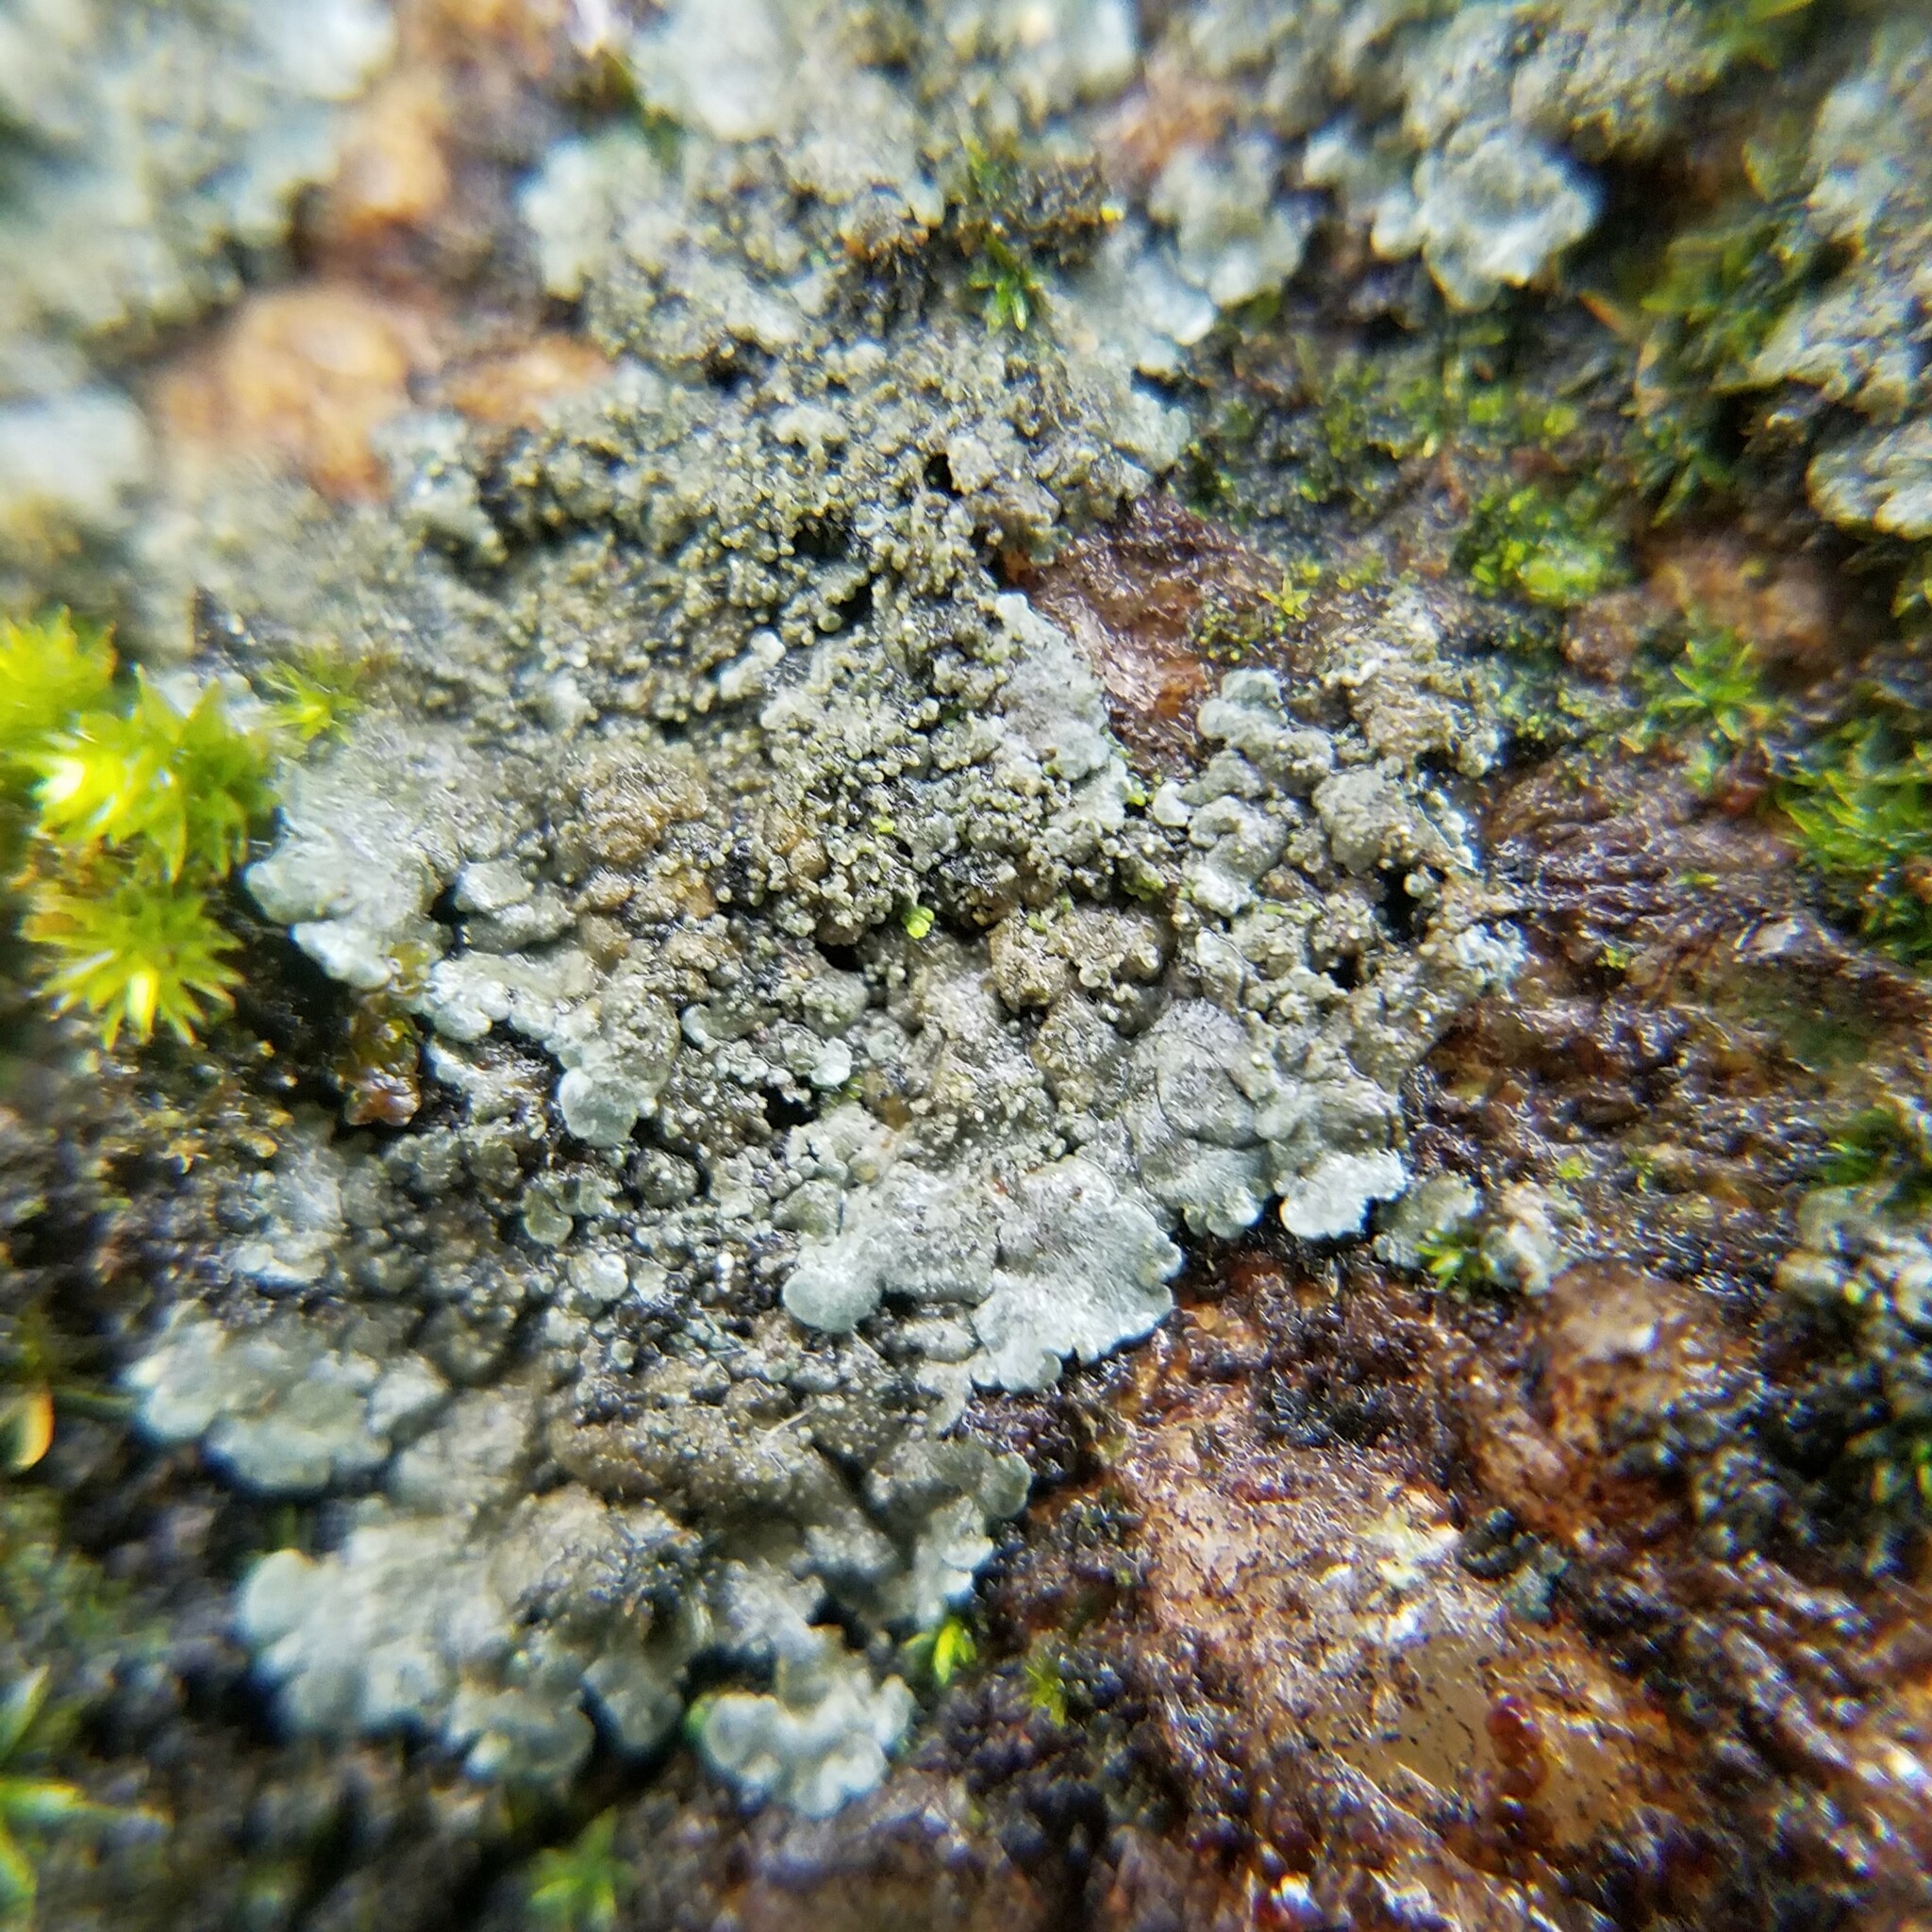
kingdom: Fungi
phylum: Ascomycota
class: Lecanoromycetes
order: Peltigerales
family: Coccocarpiaceae
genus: Coccocarpia
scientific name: Coccocarpia palmicola
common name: Salted shell lichen
